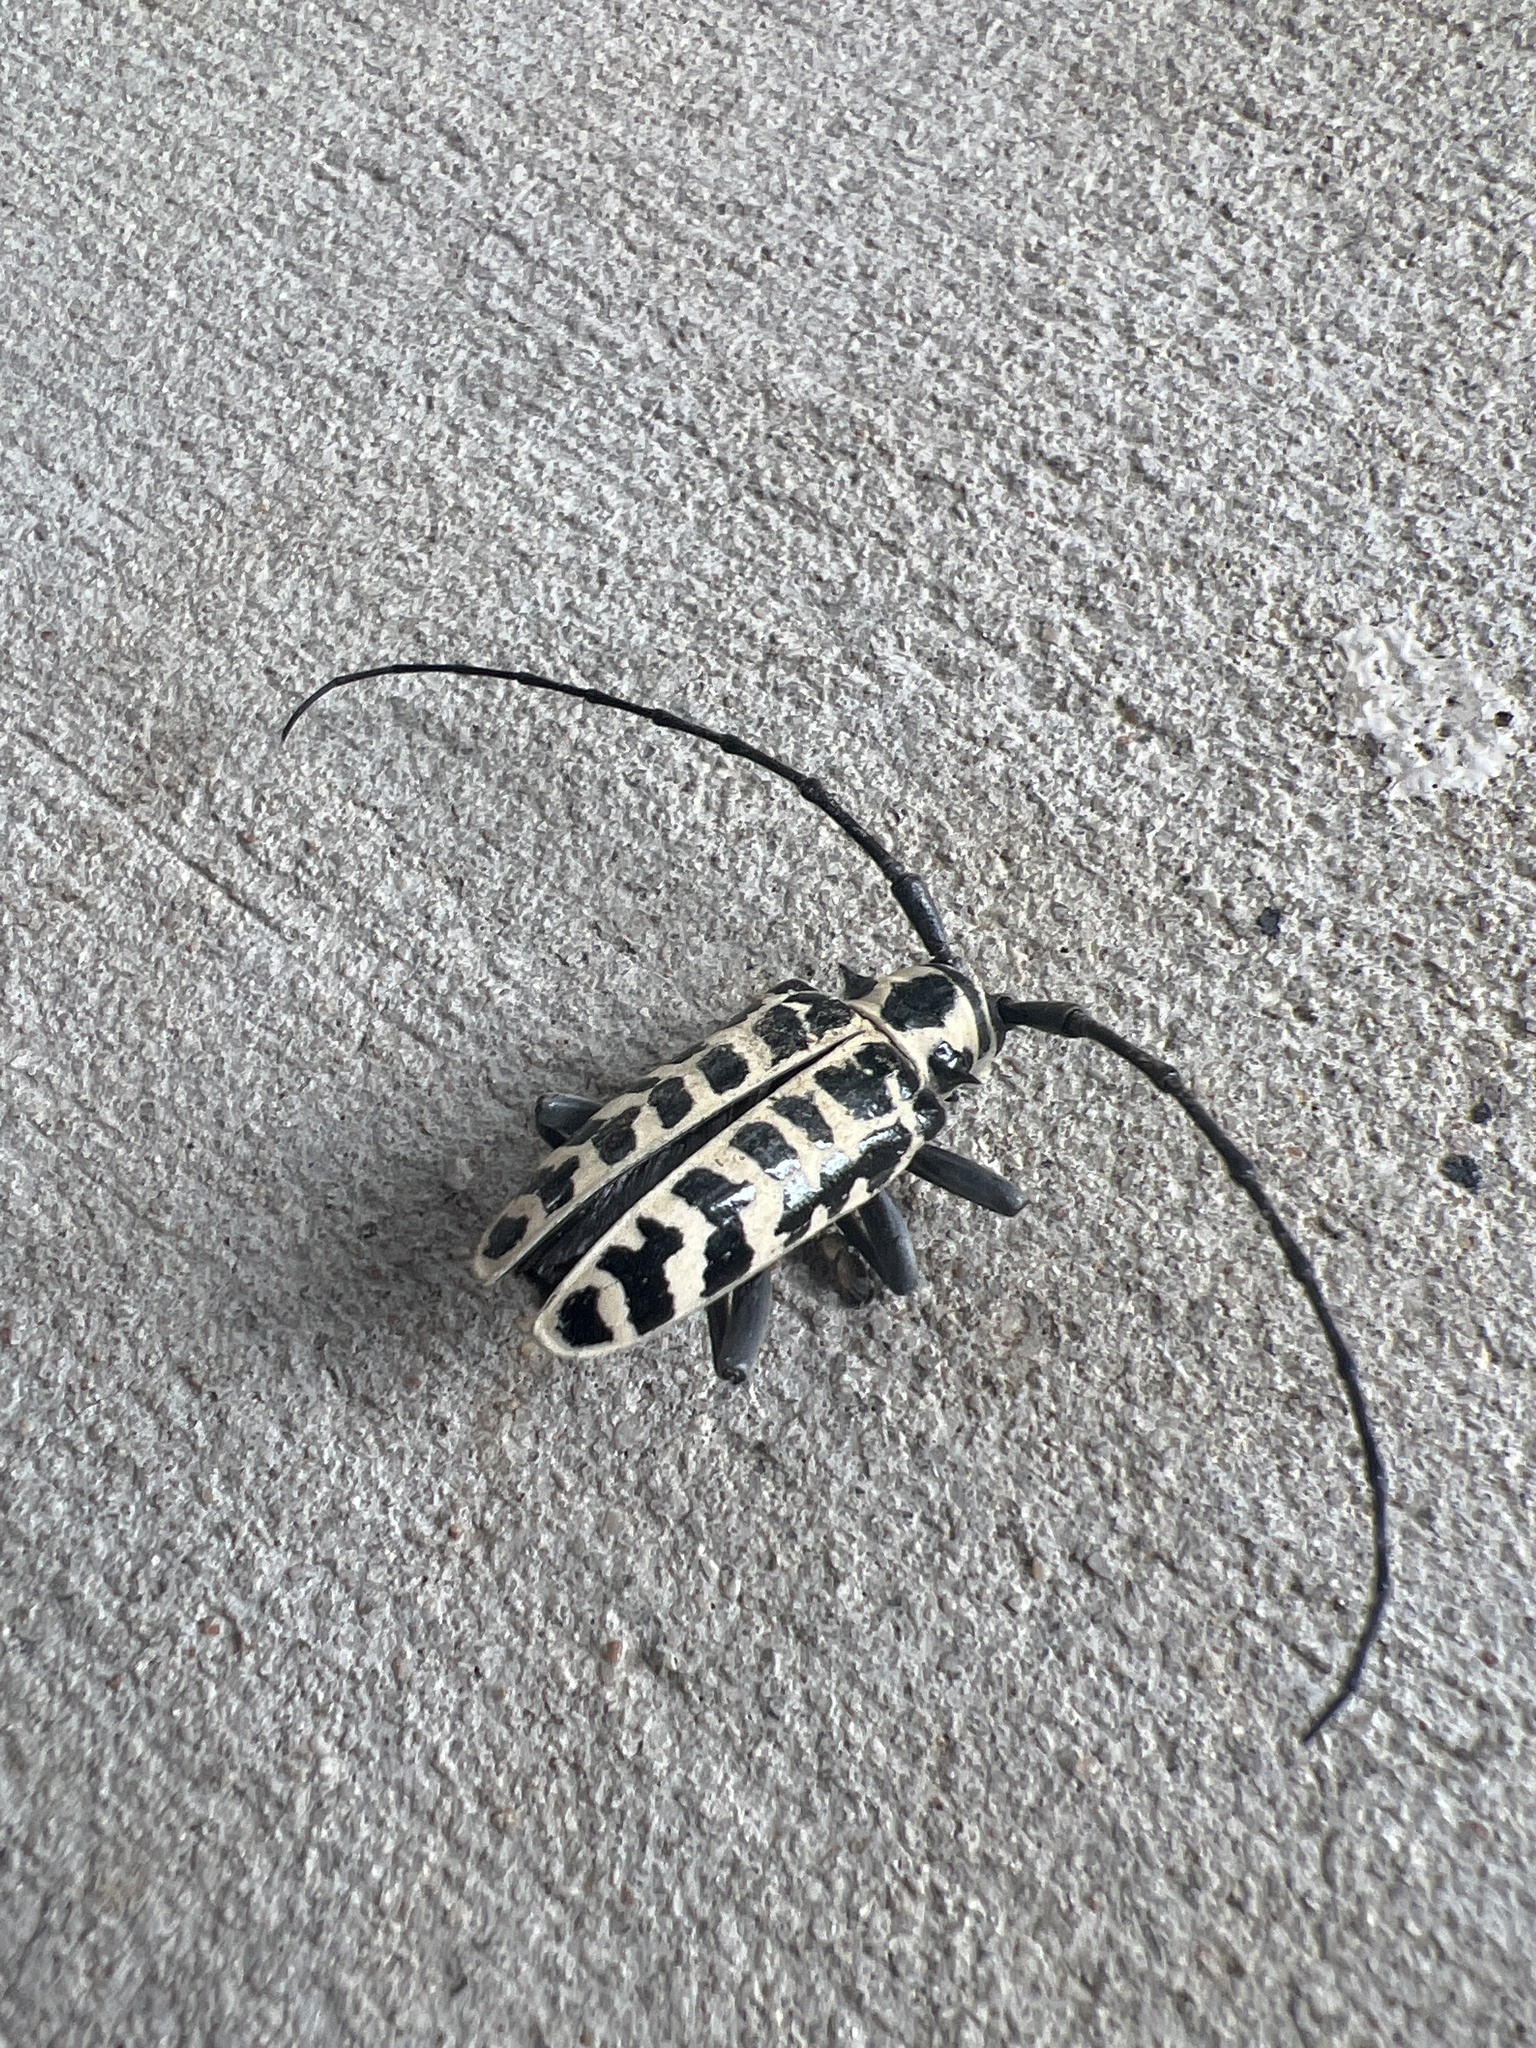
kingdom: Animalia
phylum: Arthropoda
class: Insecta
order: Coleoptera
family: Cerambycidae
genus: Plectrodera
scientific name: Plectrodera scalator
